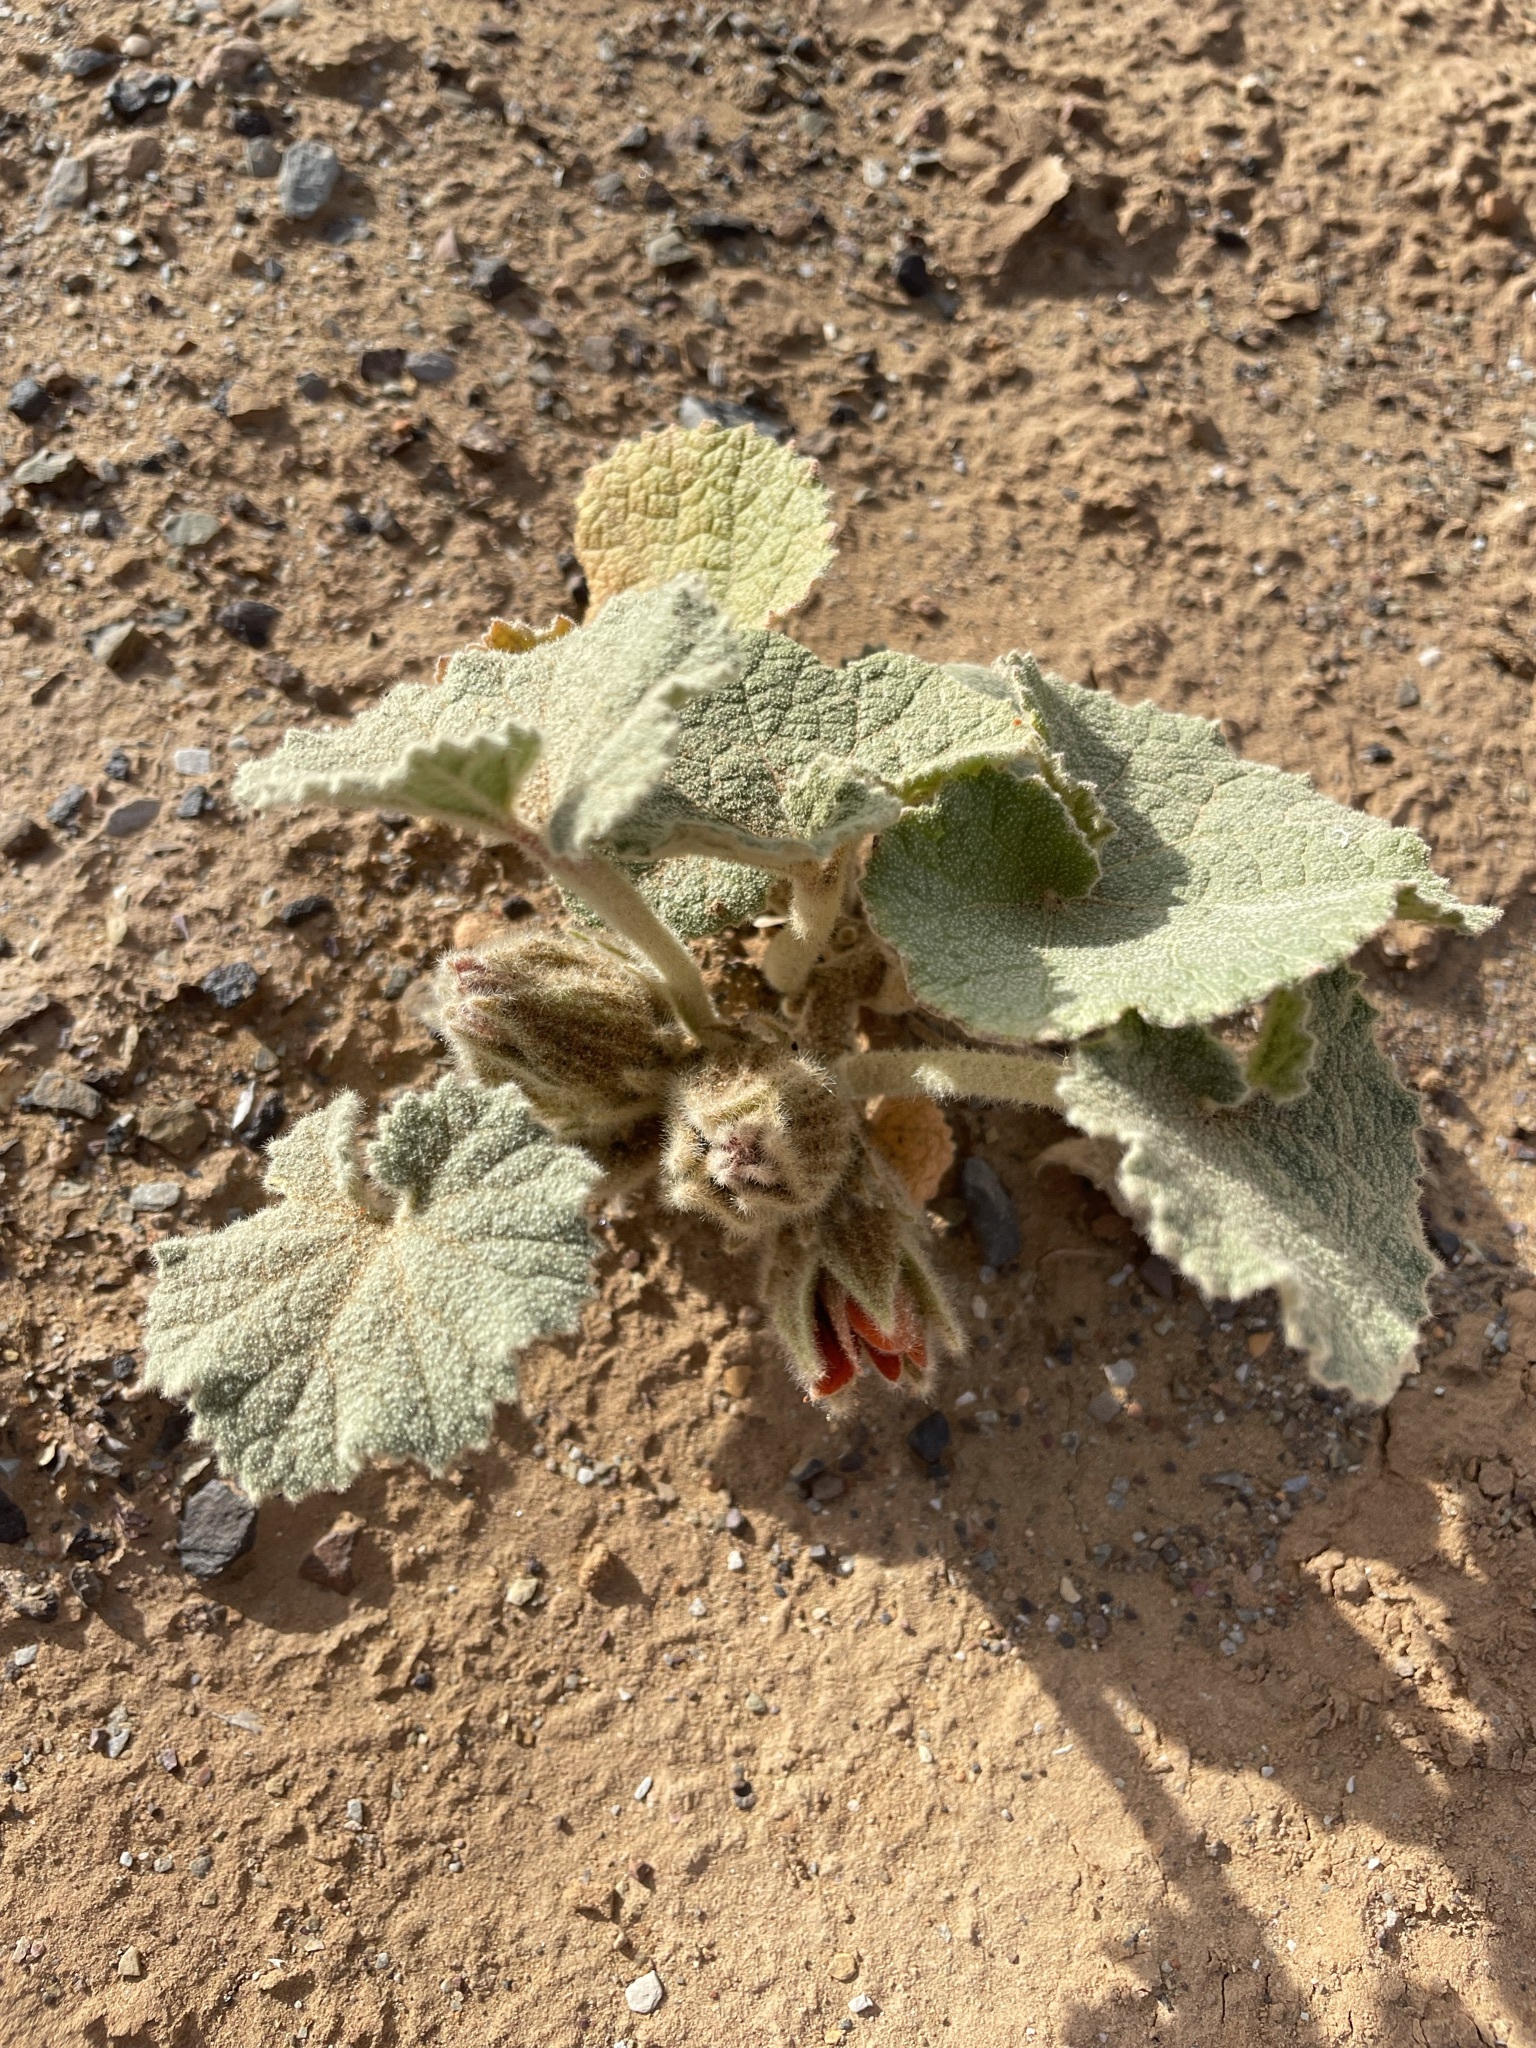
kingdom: Plantae
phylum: Tracheophyta
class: Magnoliopsida
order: Malvales
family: Malvaceae
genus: Radyera
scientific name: Radyera urens
